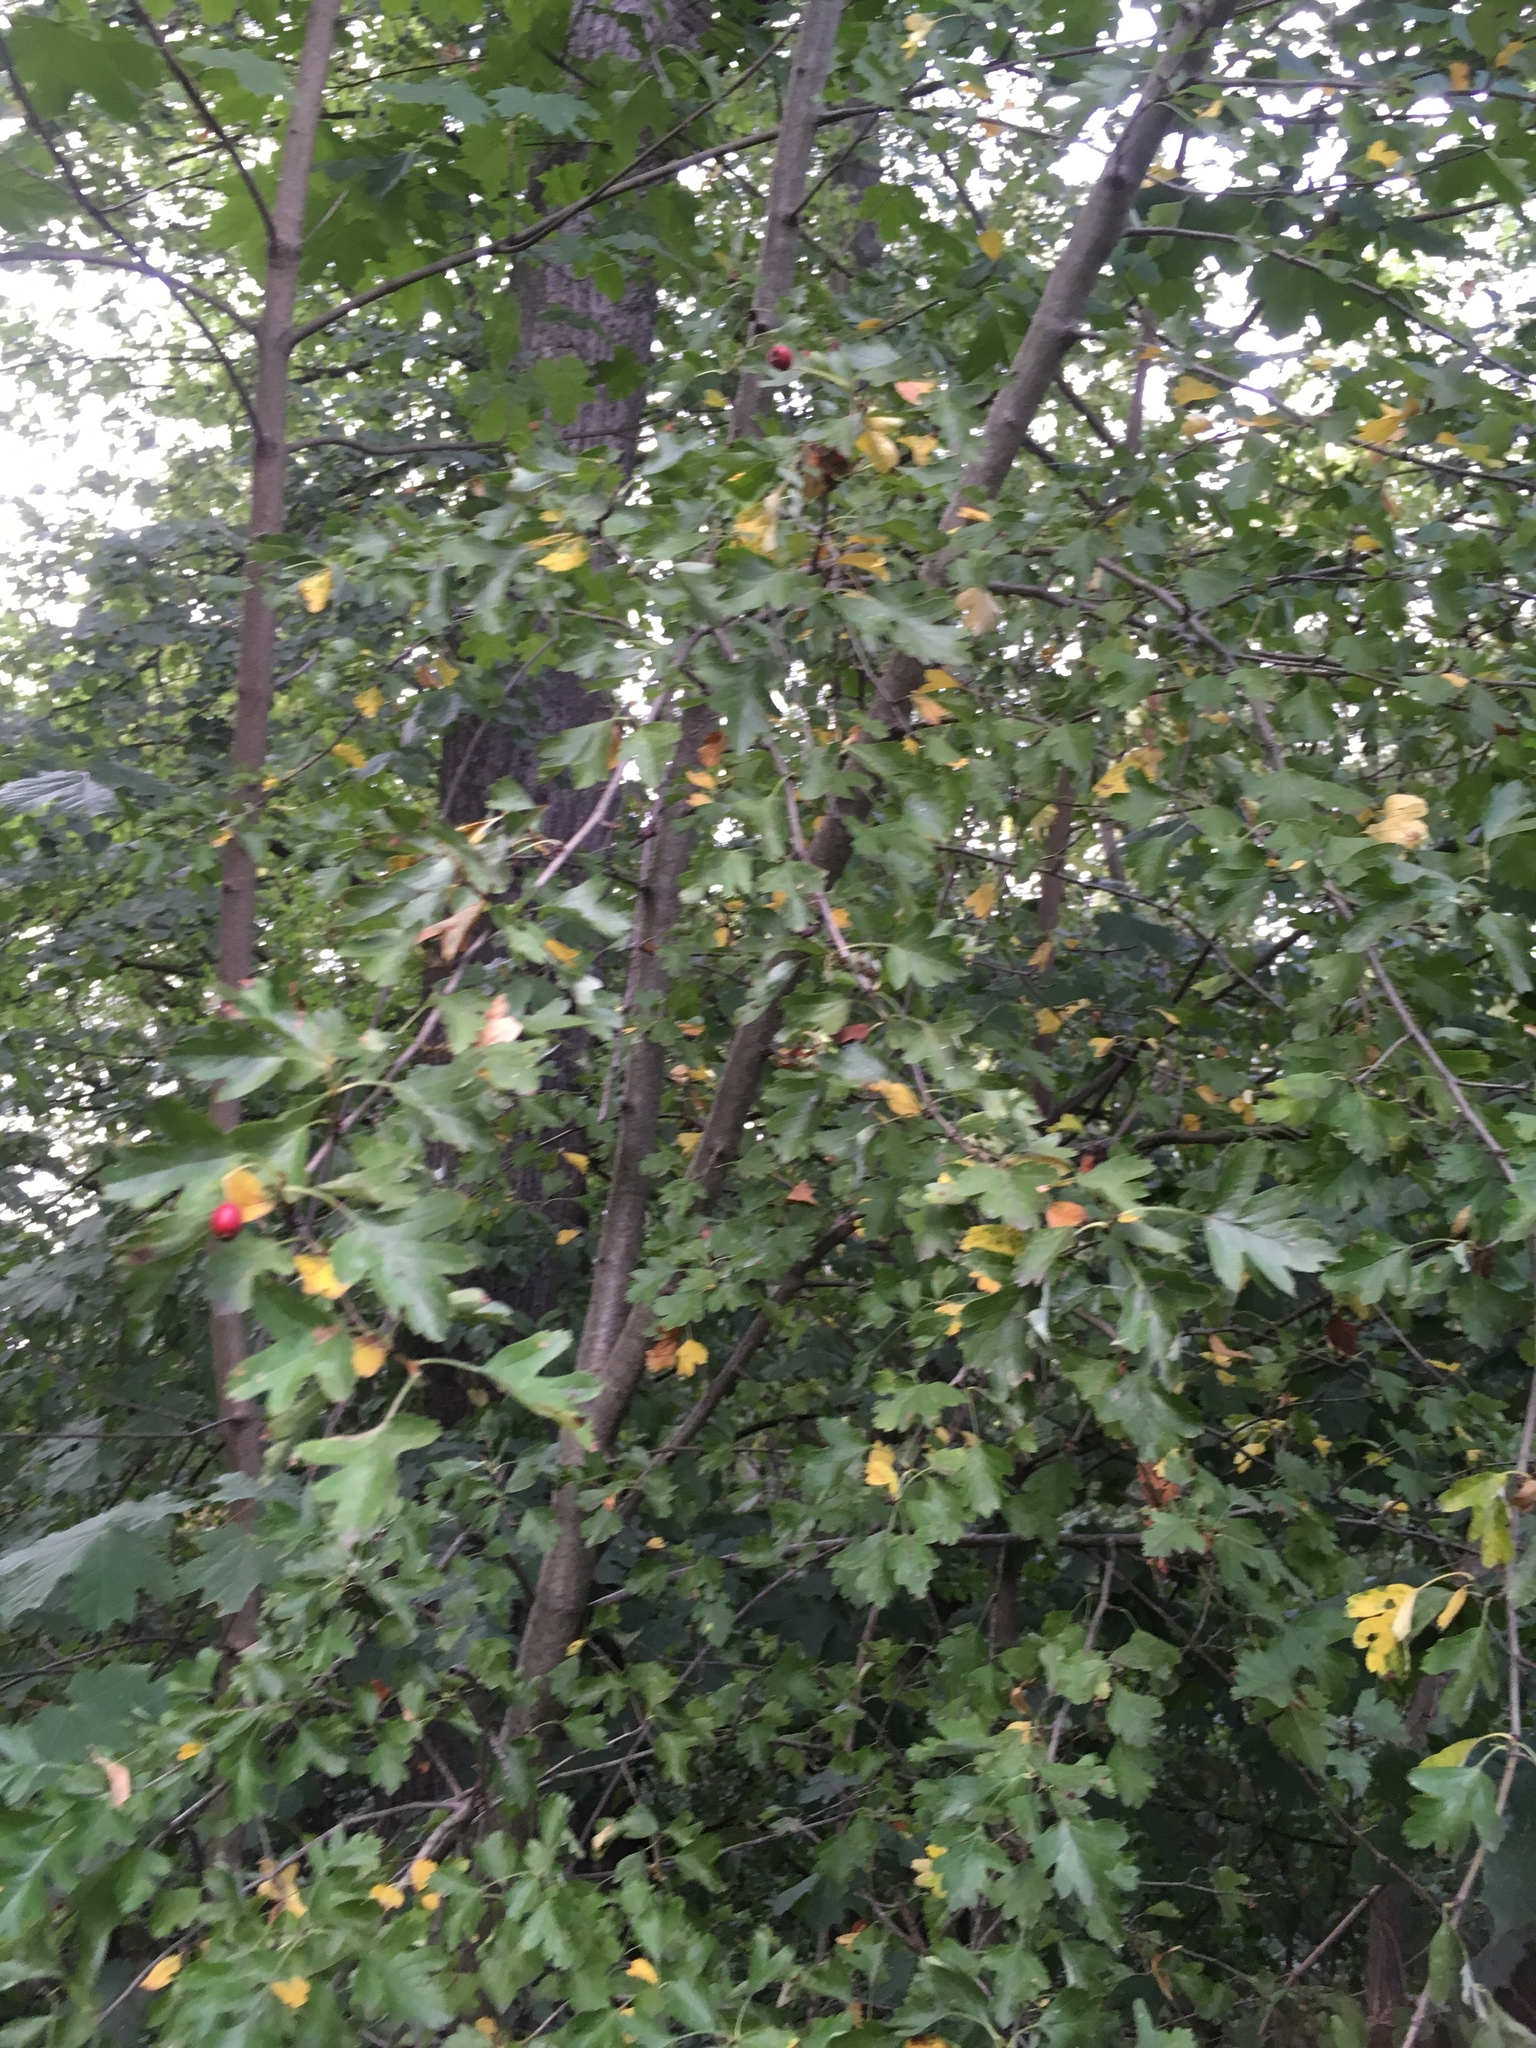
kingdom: Plantae
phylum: Tracheophyta
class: Magnoliopsida
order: Rosales
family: Rosaceae
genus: Crataegus
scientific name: Crataegus monogyna
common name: Hawthorn
